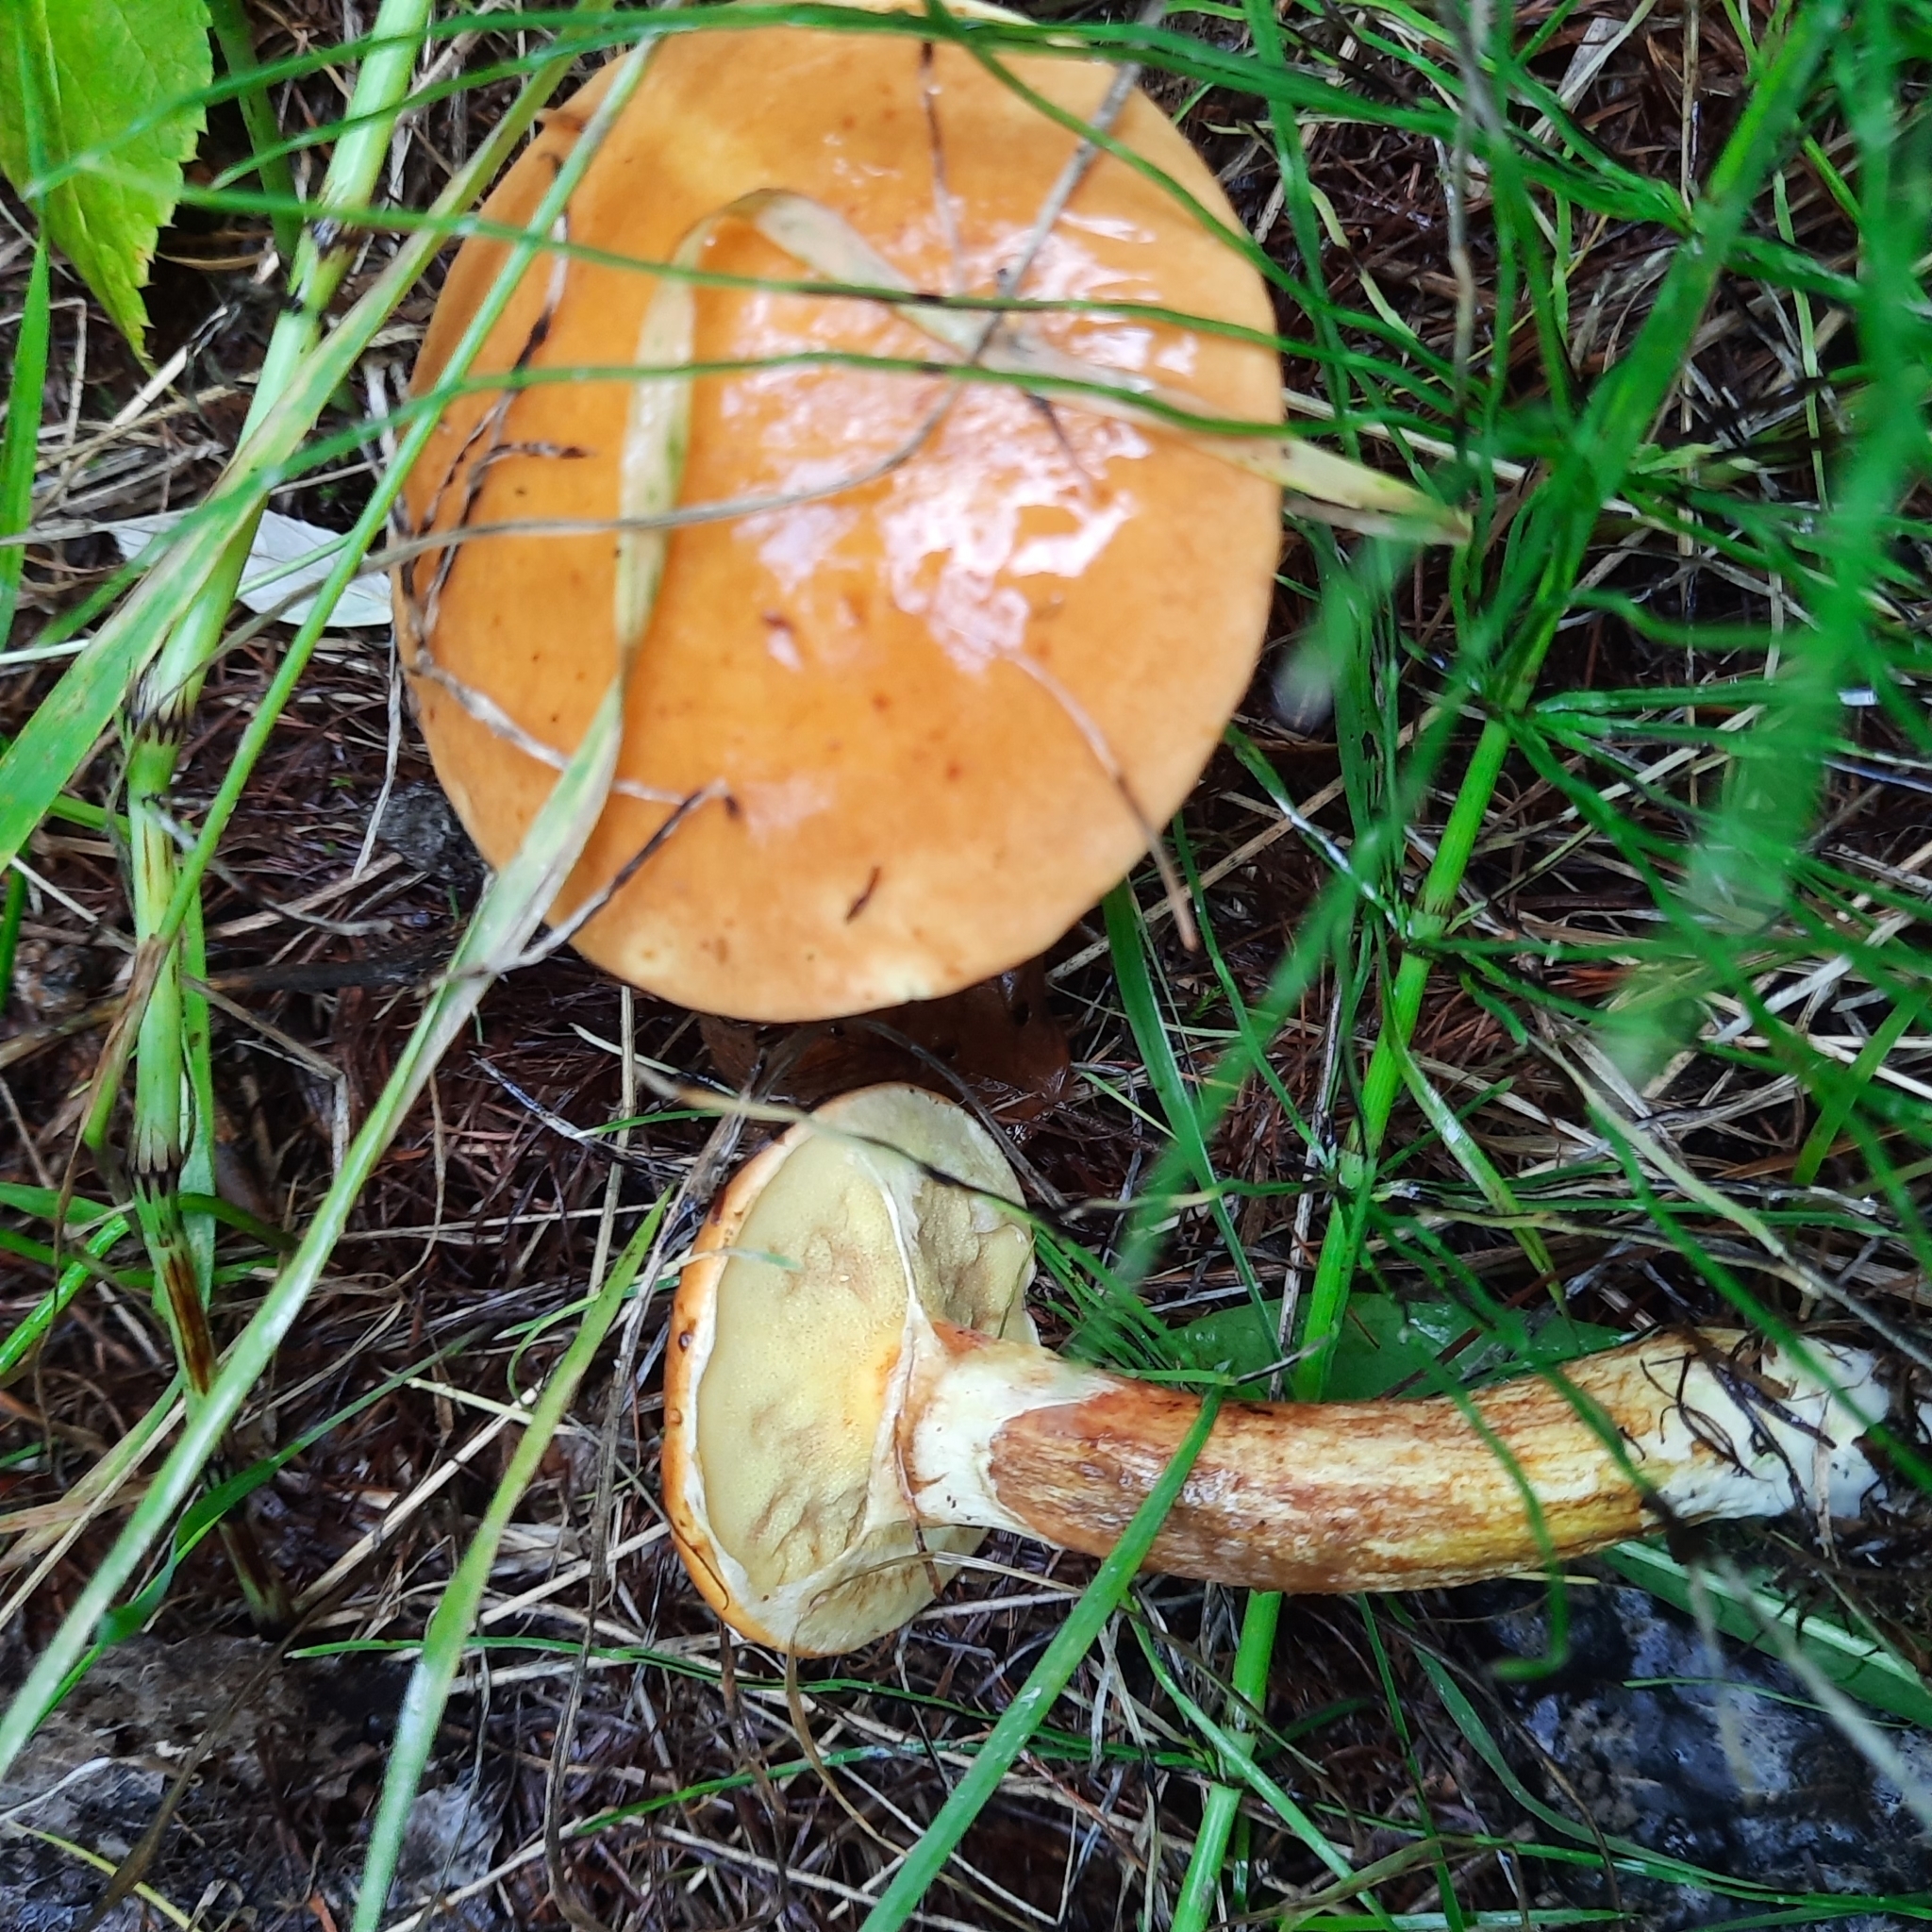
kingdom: Fungi
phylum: Basidiomycota
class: Agaricomycetes
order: Boletales
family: Suillaceae
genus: Suillus
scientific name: Suillus grevillei
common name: Larch bolete
